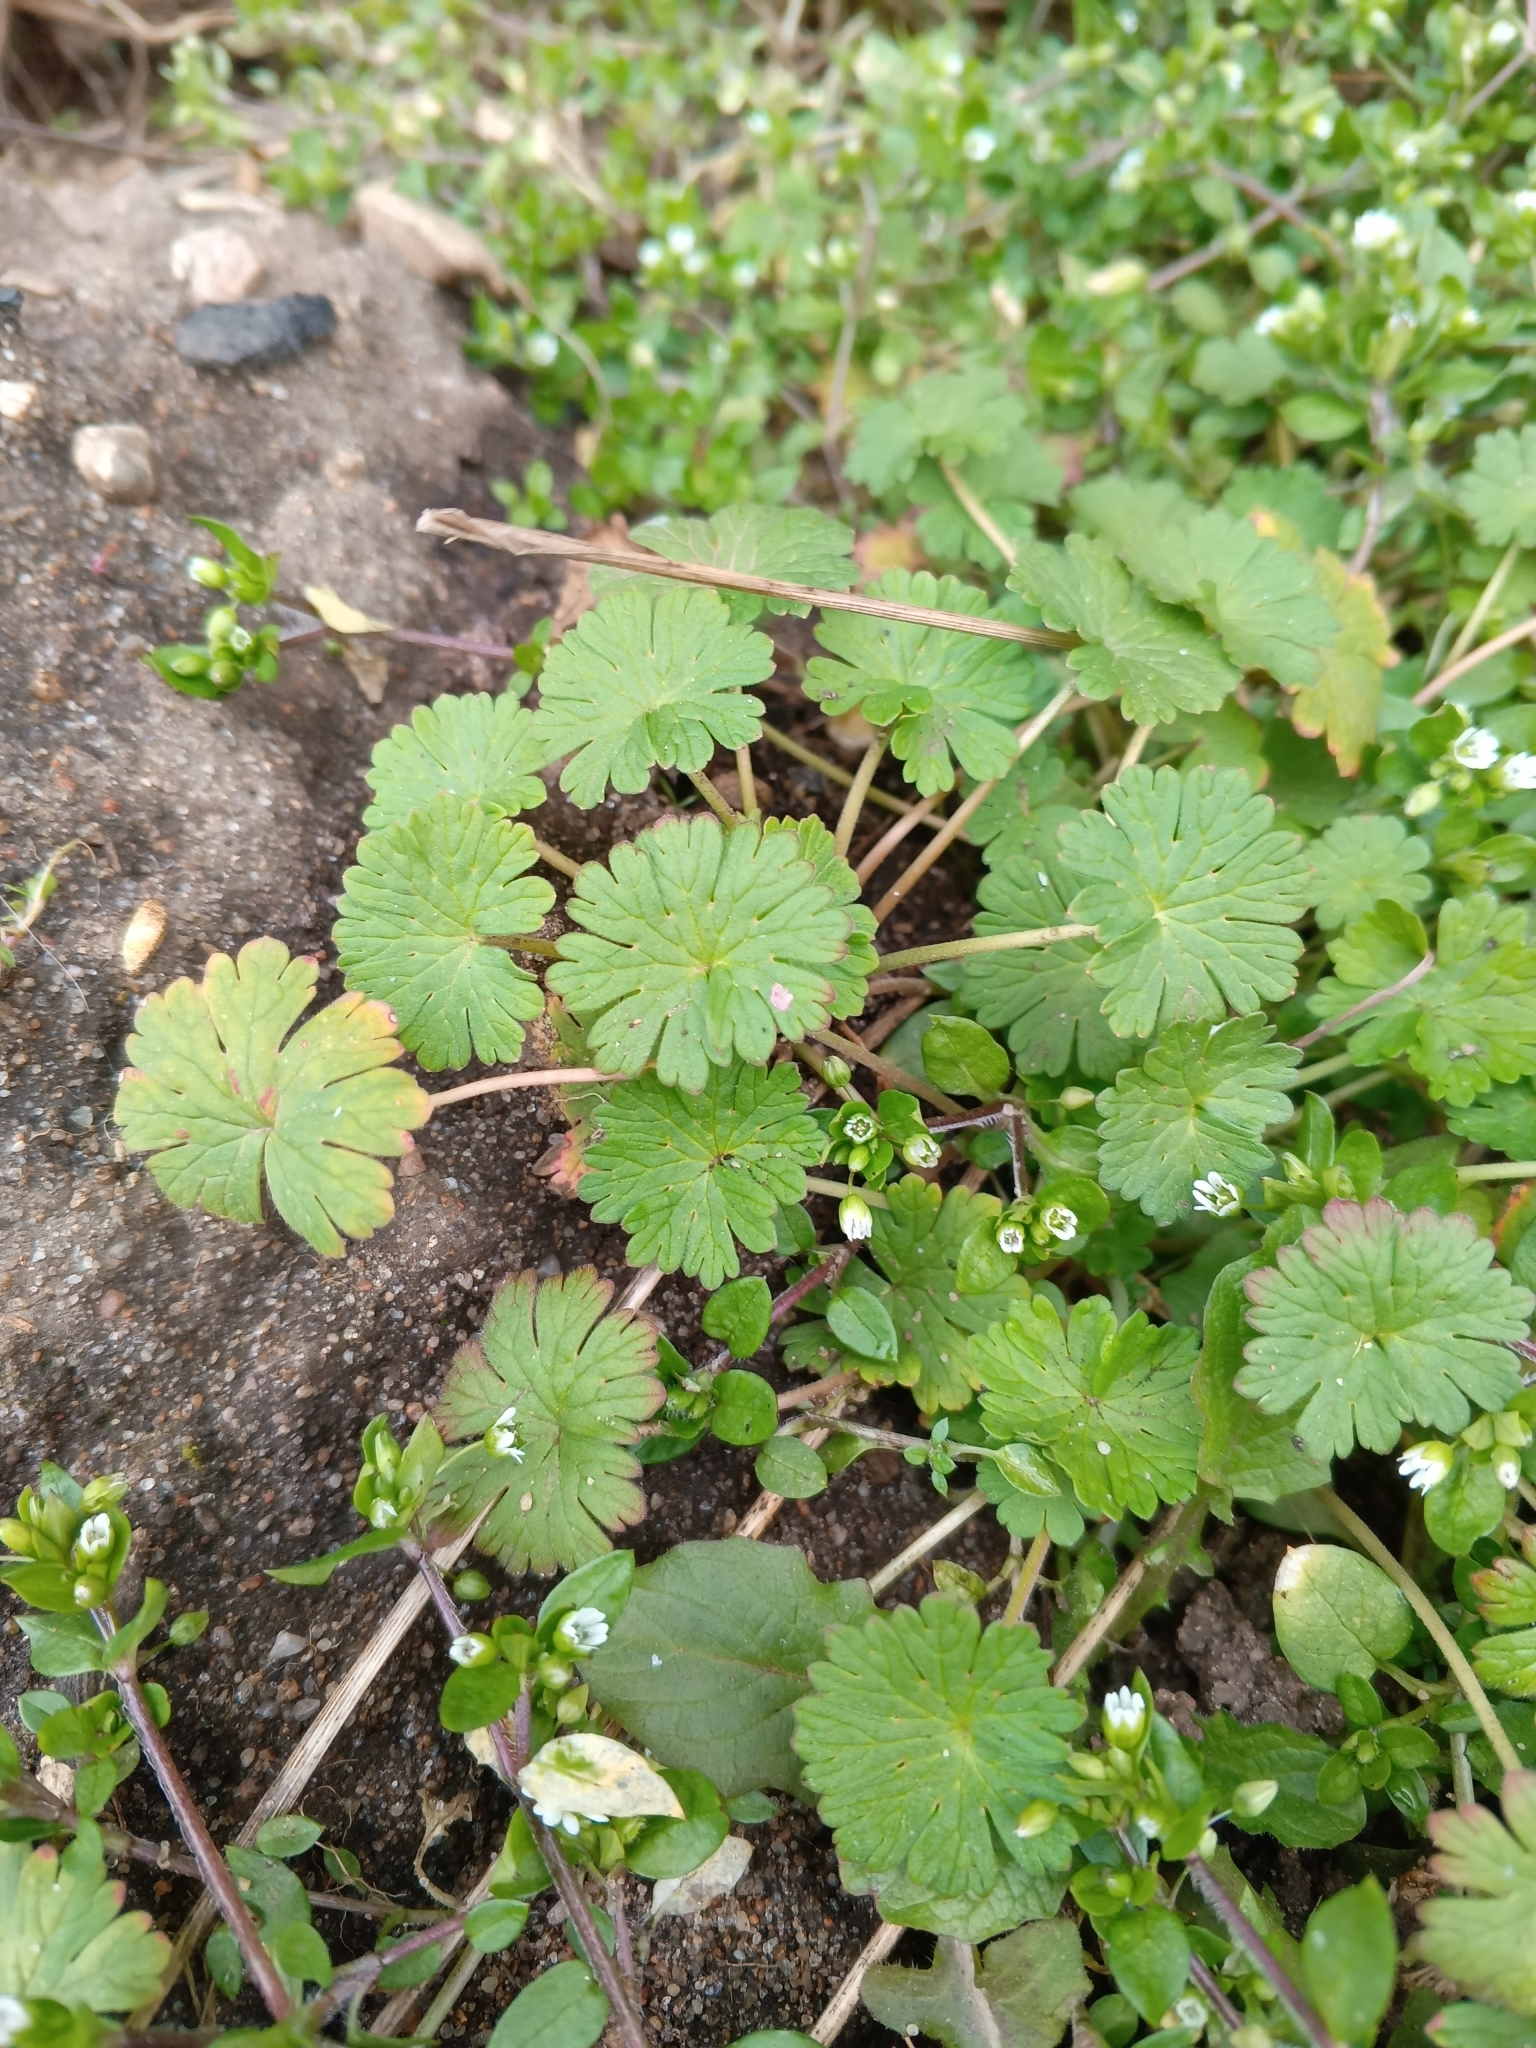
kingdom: Plantae
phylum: Tracheophyta
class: Magnoliopsida
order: Geraniales
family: Geraniaceae
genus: Geranium
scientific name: Geranium pusillum
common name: Small geranium
